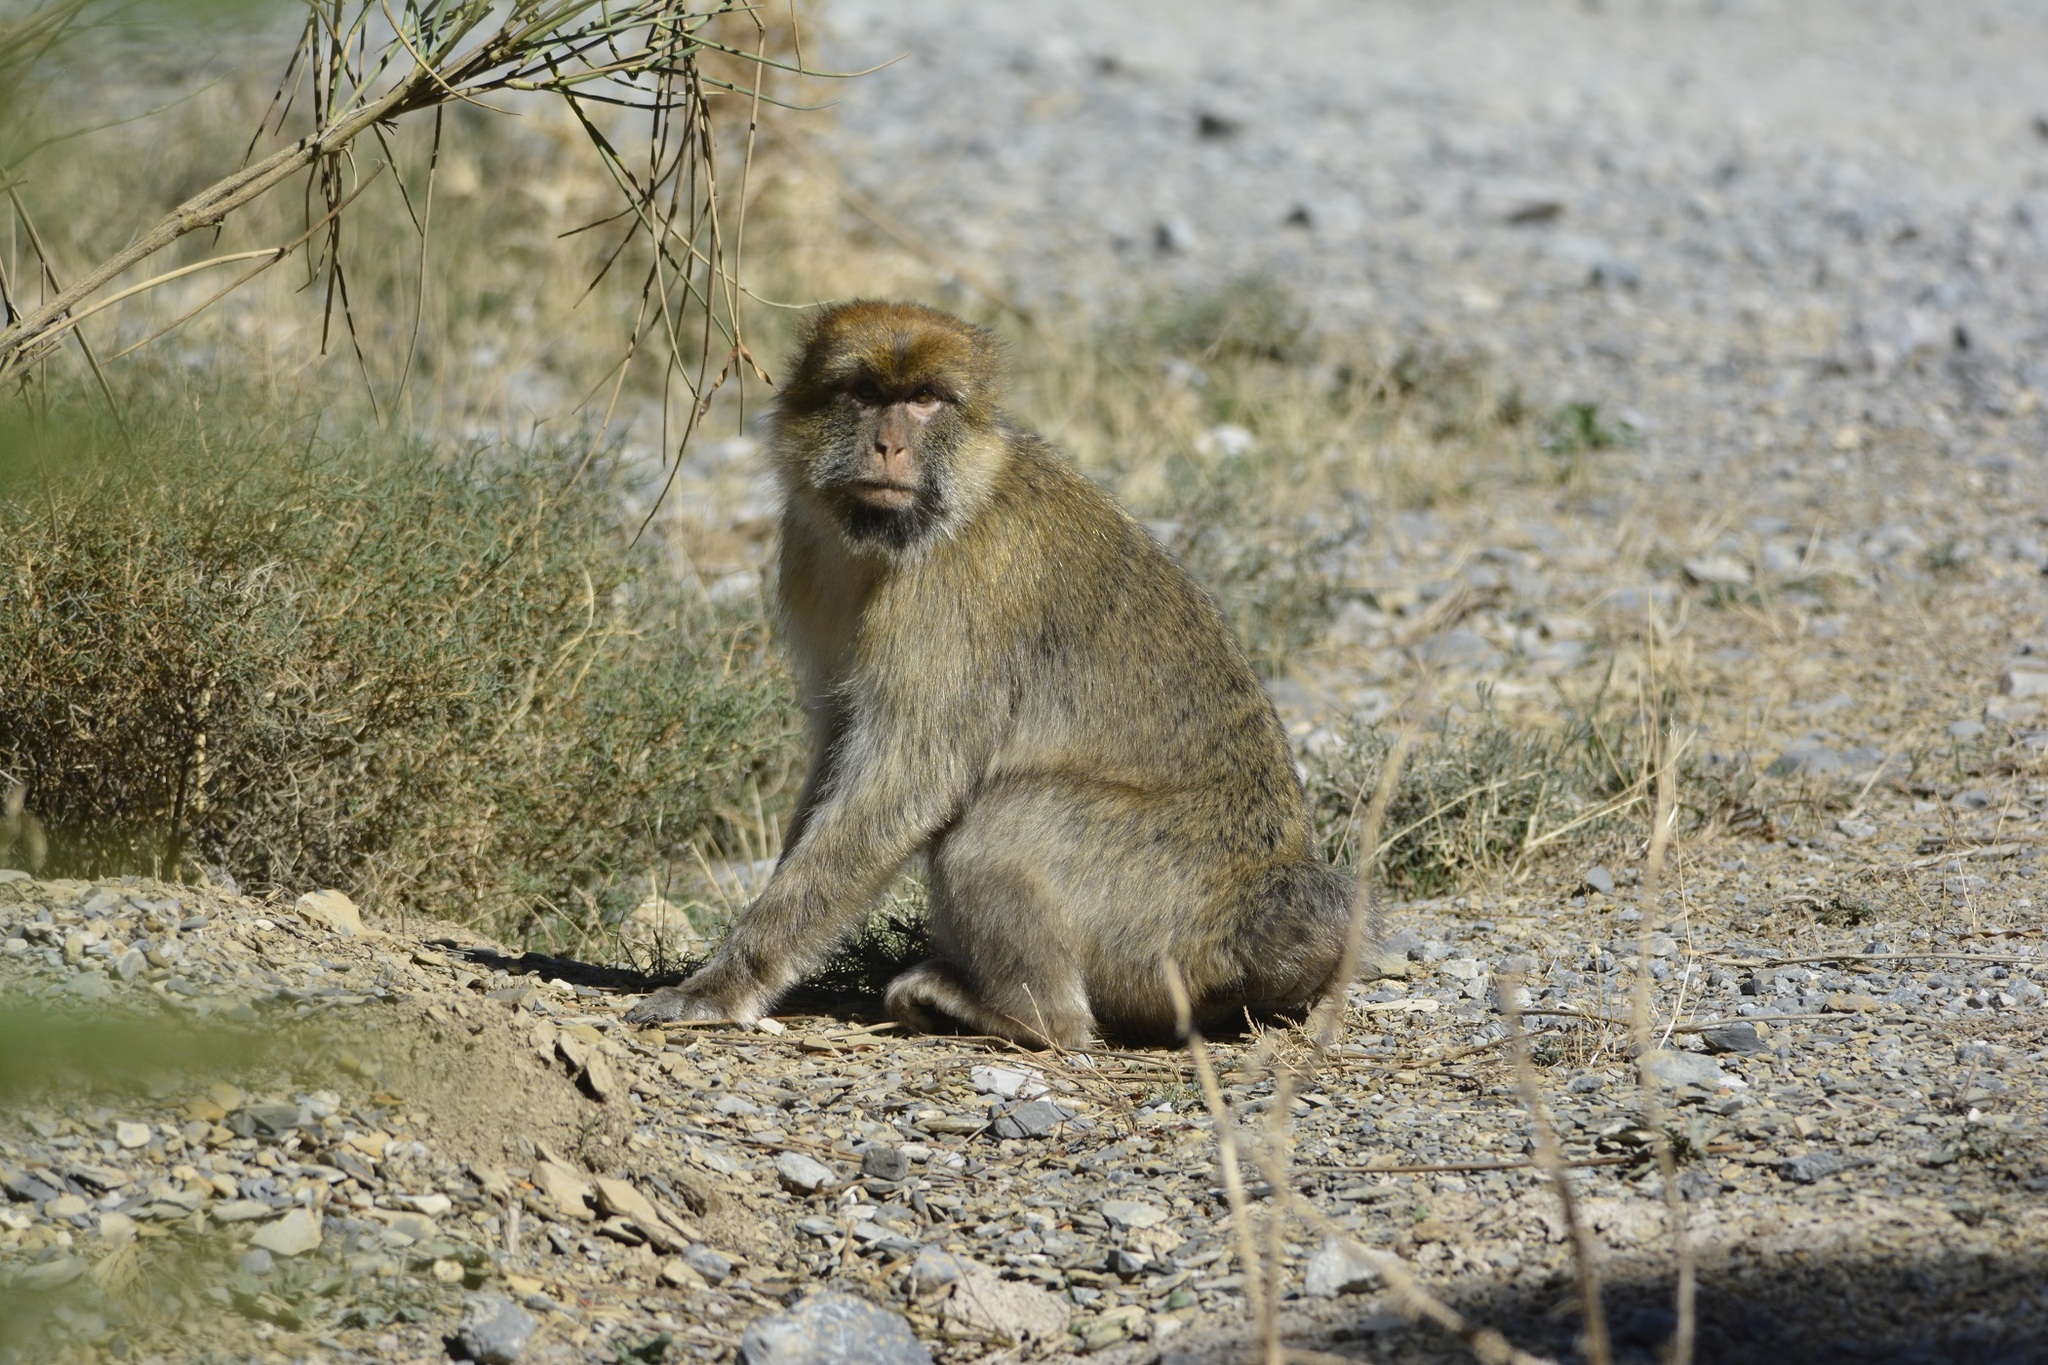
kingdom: Animalia
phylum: Chordata
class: Mammalia
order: Primates
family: Cercopithecidae
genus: Macaca
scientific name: Macaca sylvanus
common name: Barbary macaque
